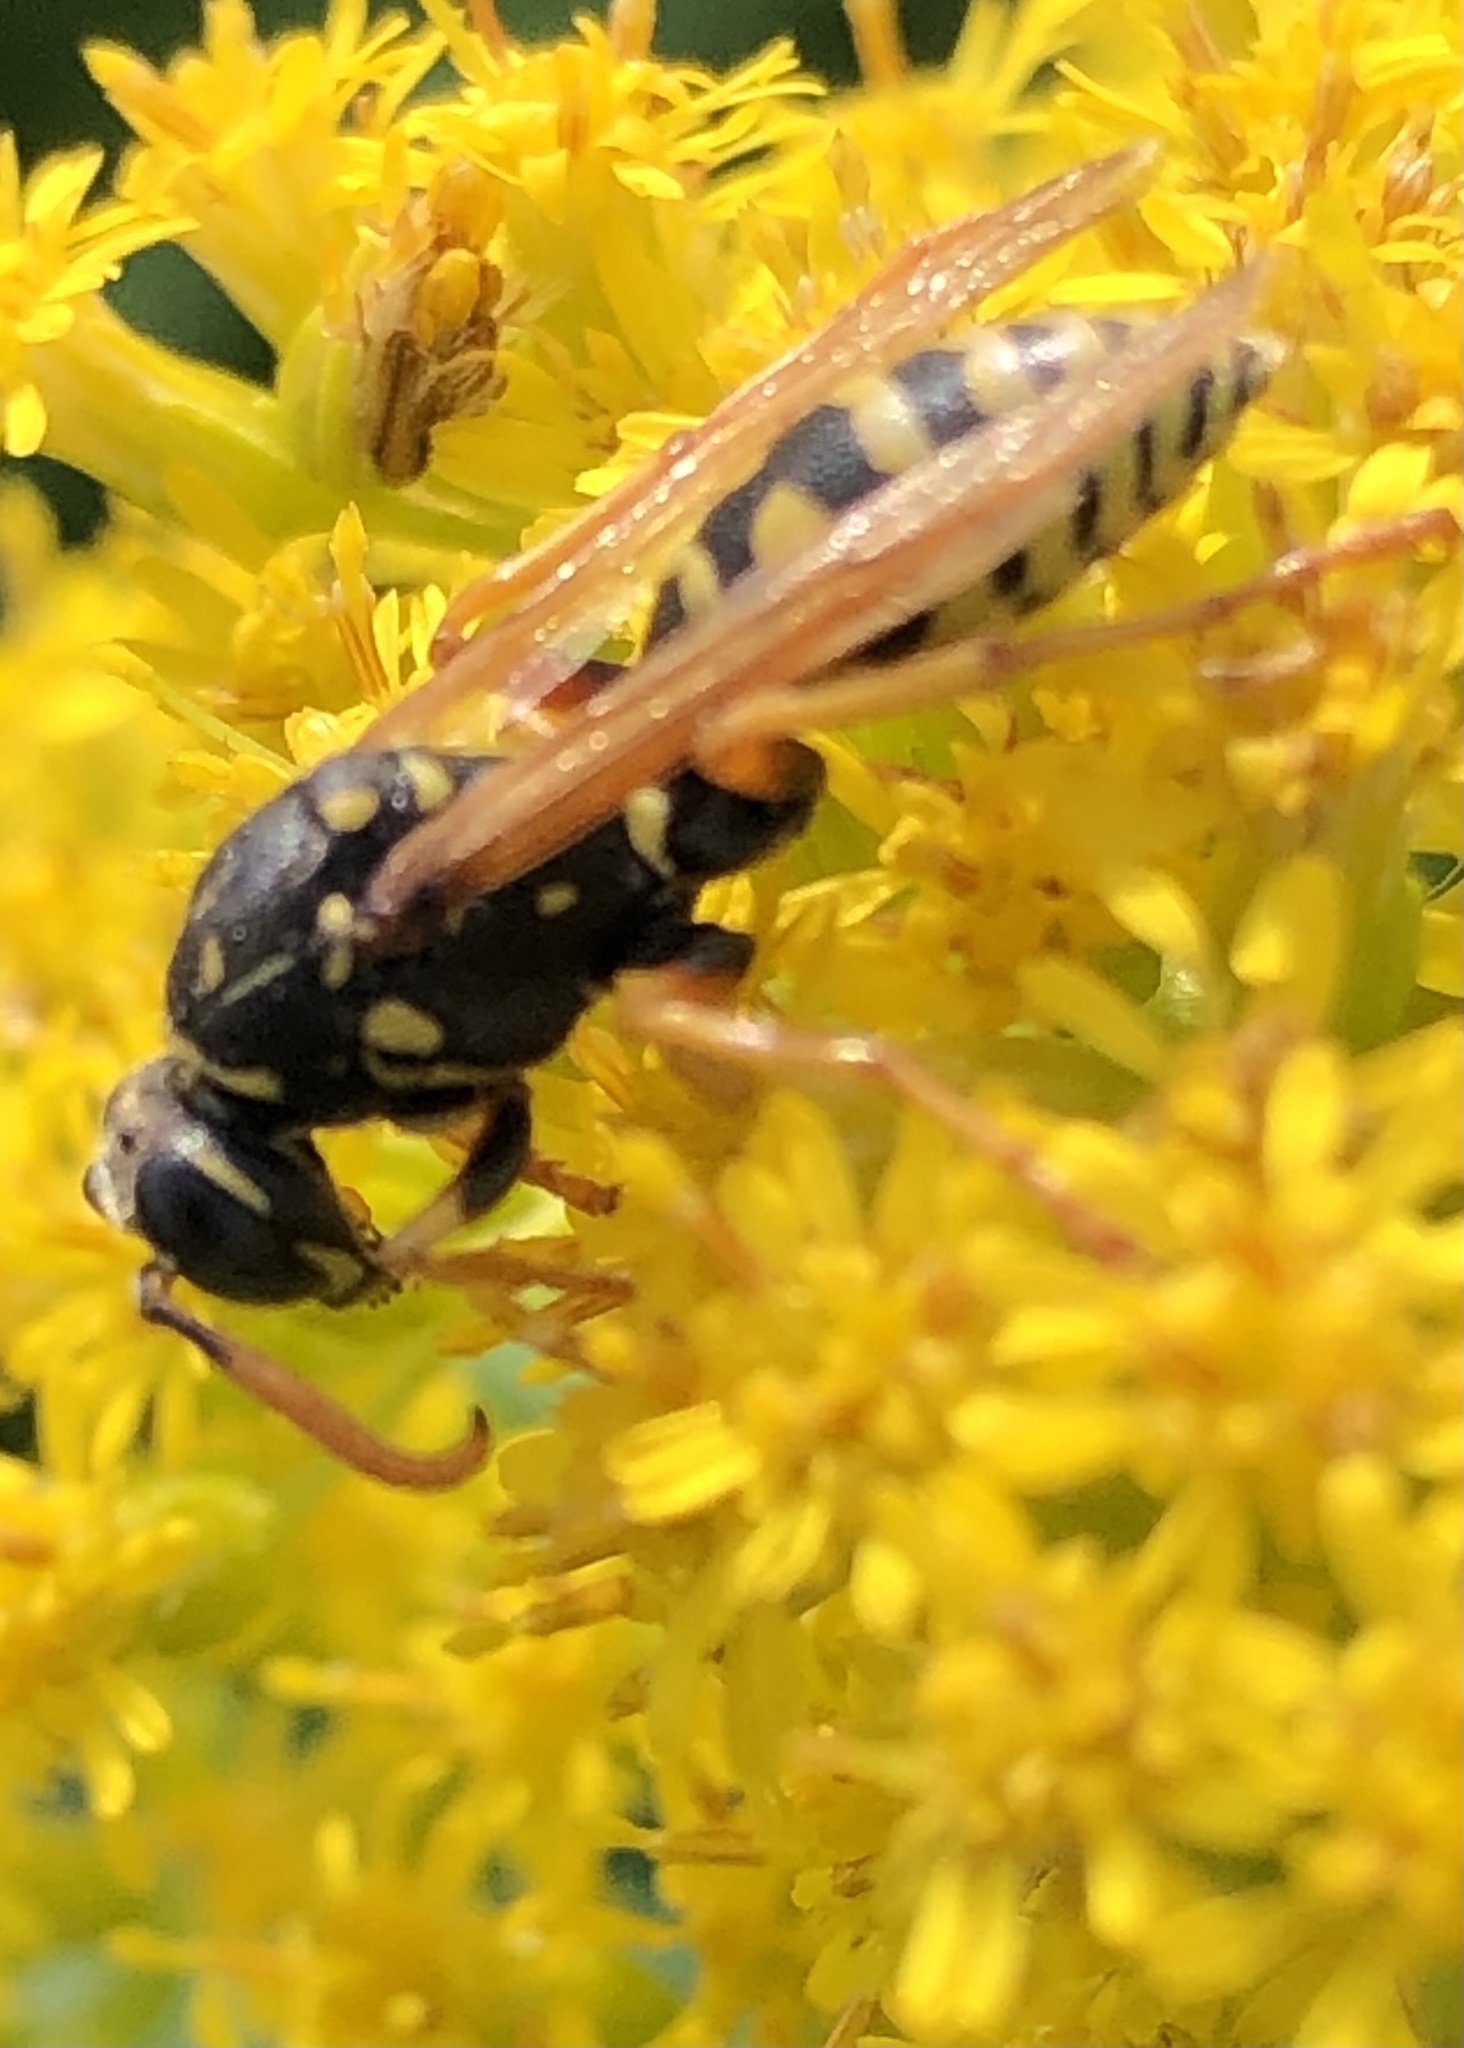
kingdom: Animalia
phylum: Arthropoda
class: Insecta
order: Hymenoptera
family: Eumenidae
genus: Polistes
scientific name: Polistes dominula
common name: Paper wasp
